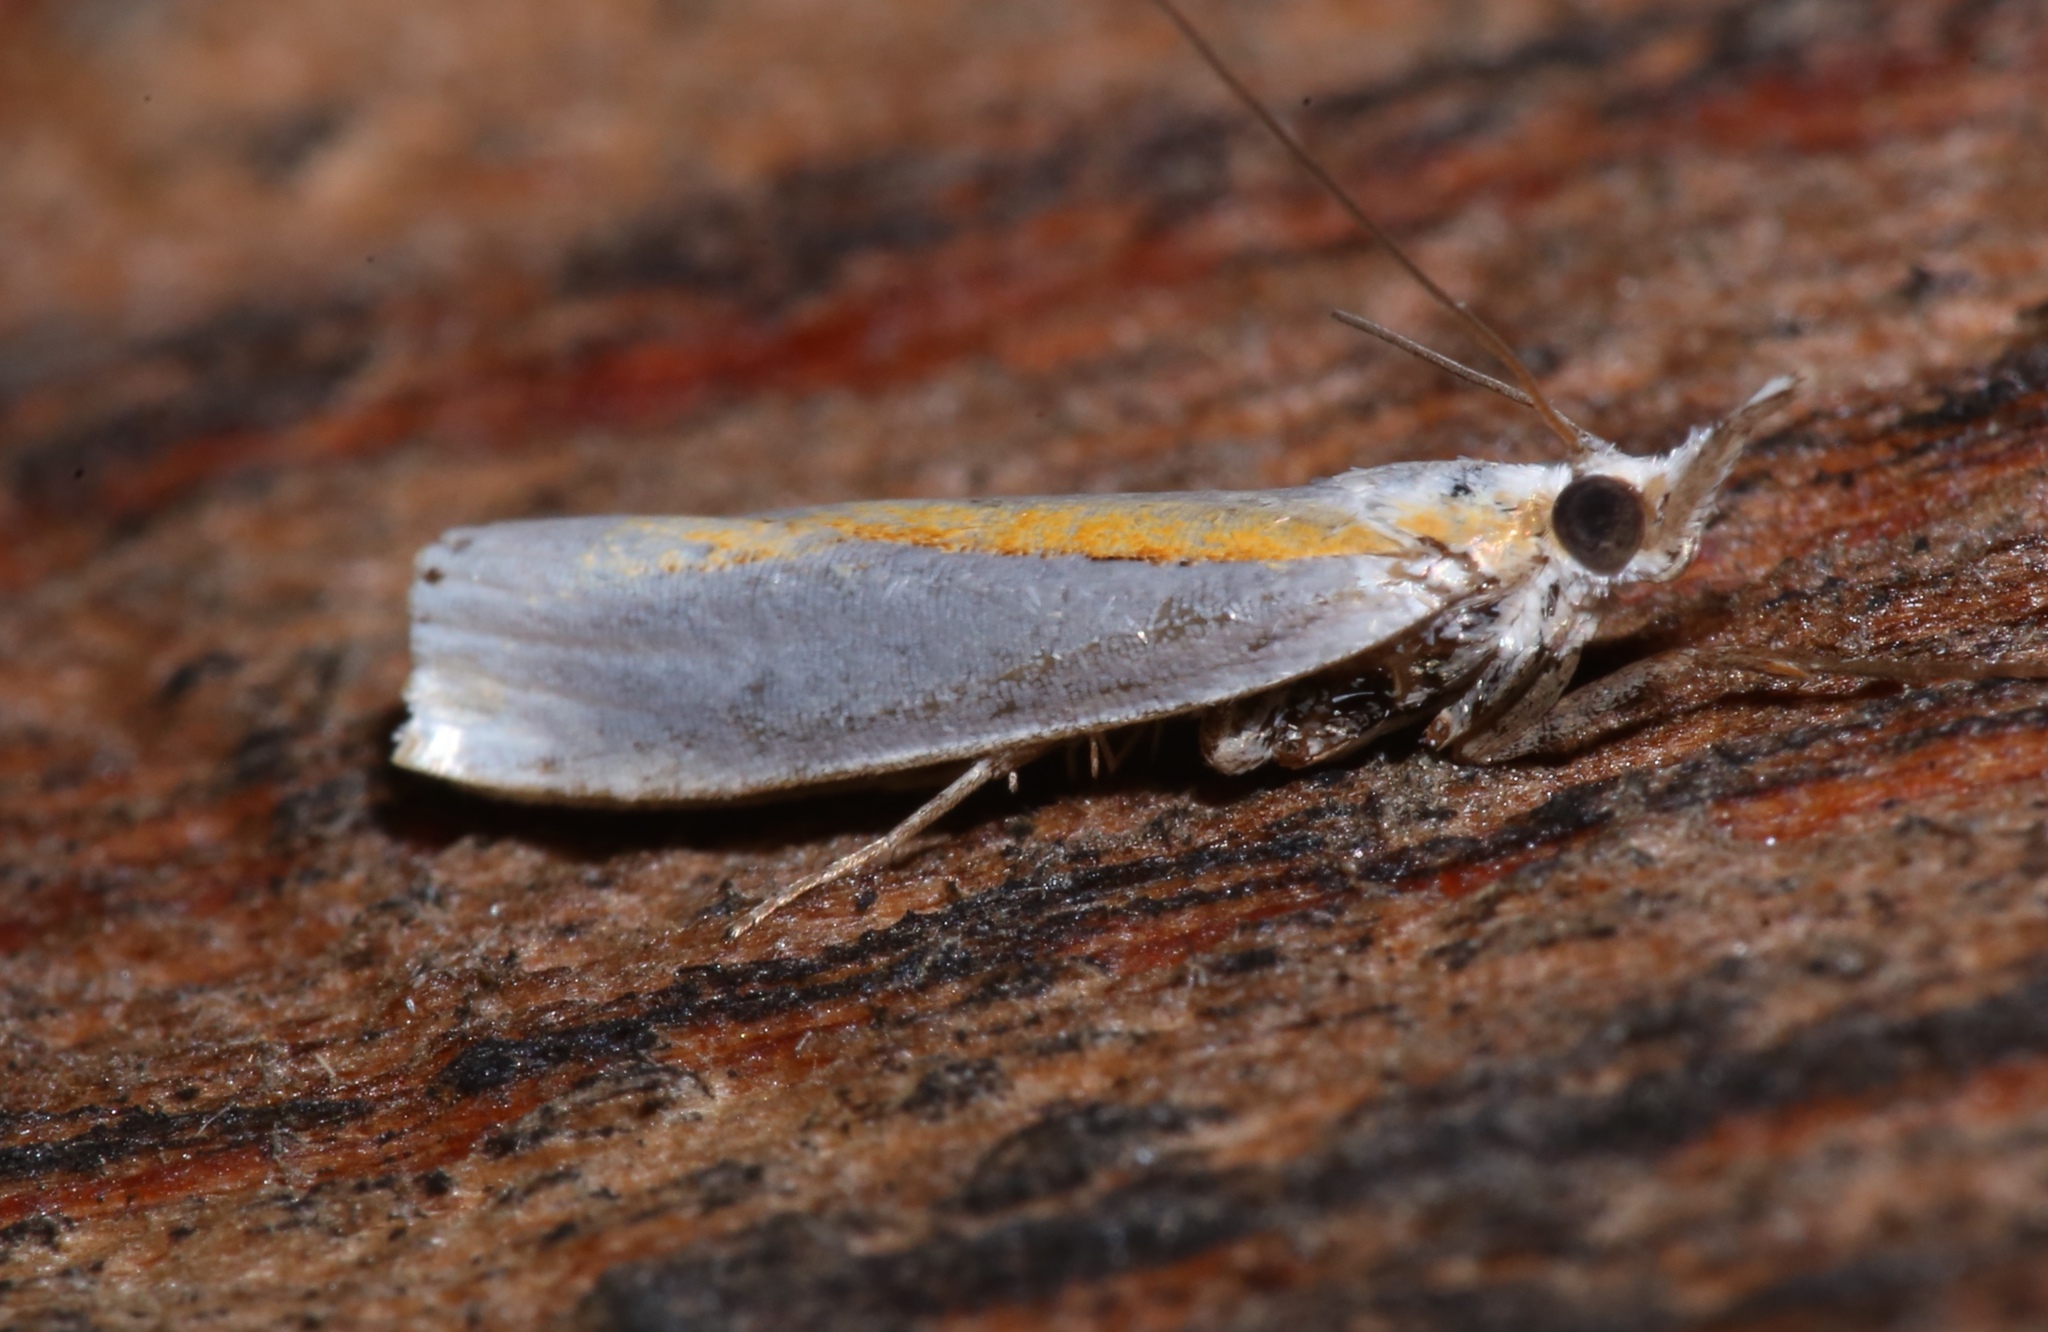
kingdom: Animalia
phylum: Arthropoda
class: Insecta
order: Lepidoptera
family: Crambidae
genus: Crambus
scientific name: Crambus girardellus
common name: Girard's grass-veneer
